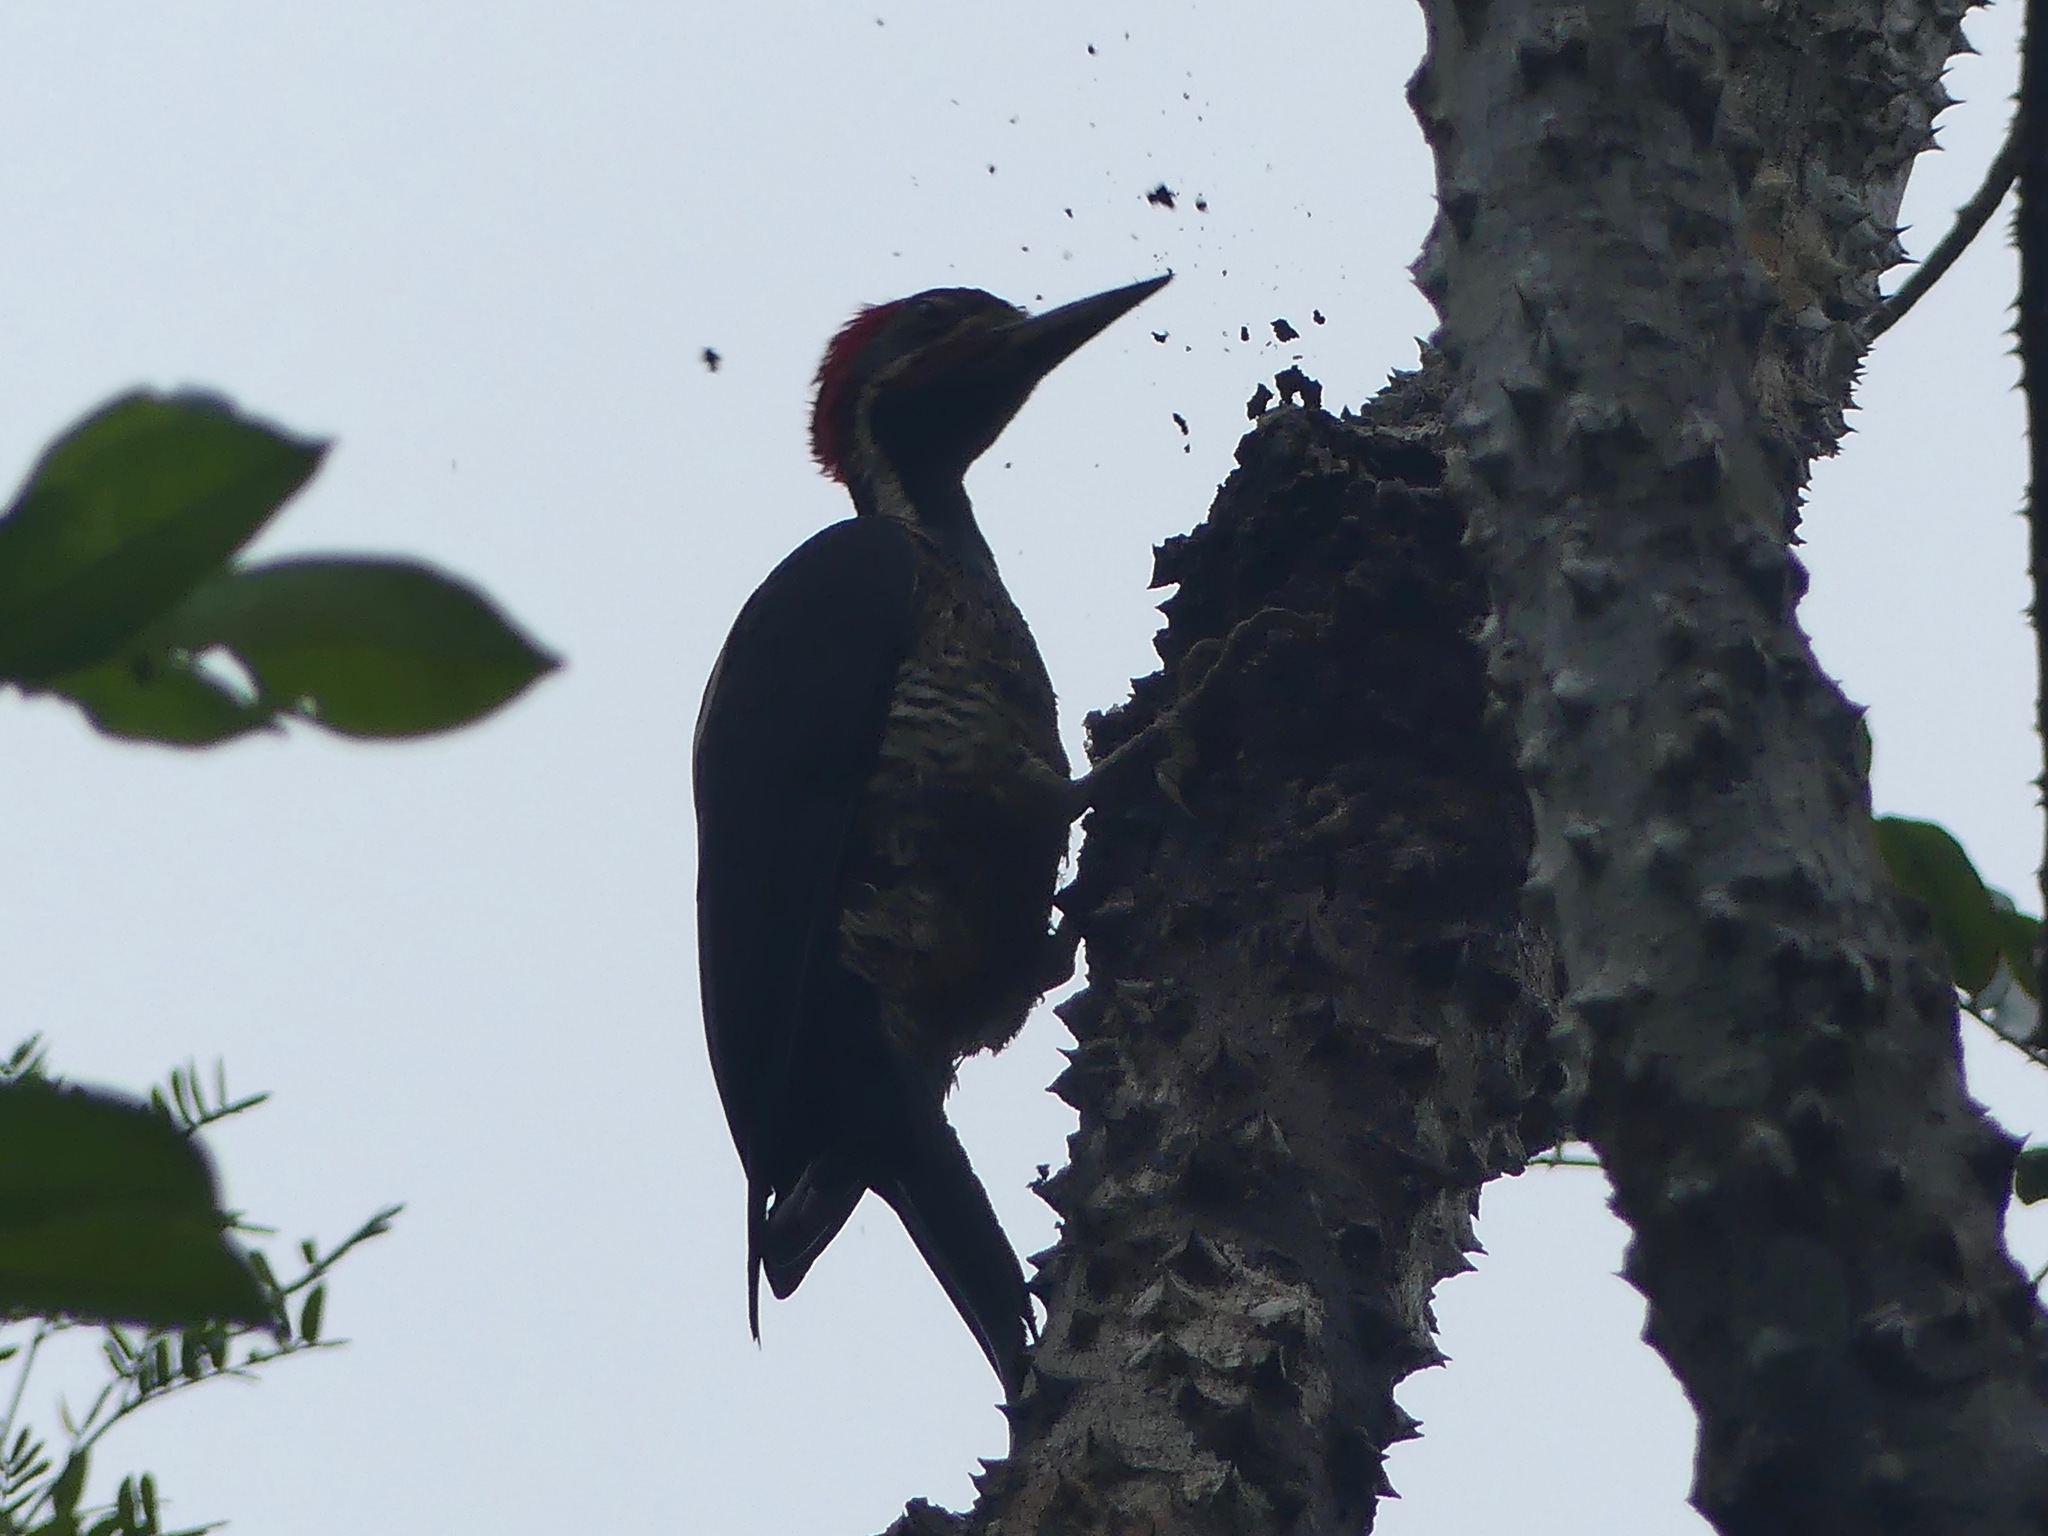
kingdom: Animalia
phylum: Chordata
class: Aves
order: Piciformes
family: Picidae
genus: Dryocopus
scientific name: Dryocopus lineatus
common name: Lineated woodpecker
